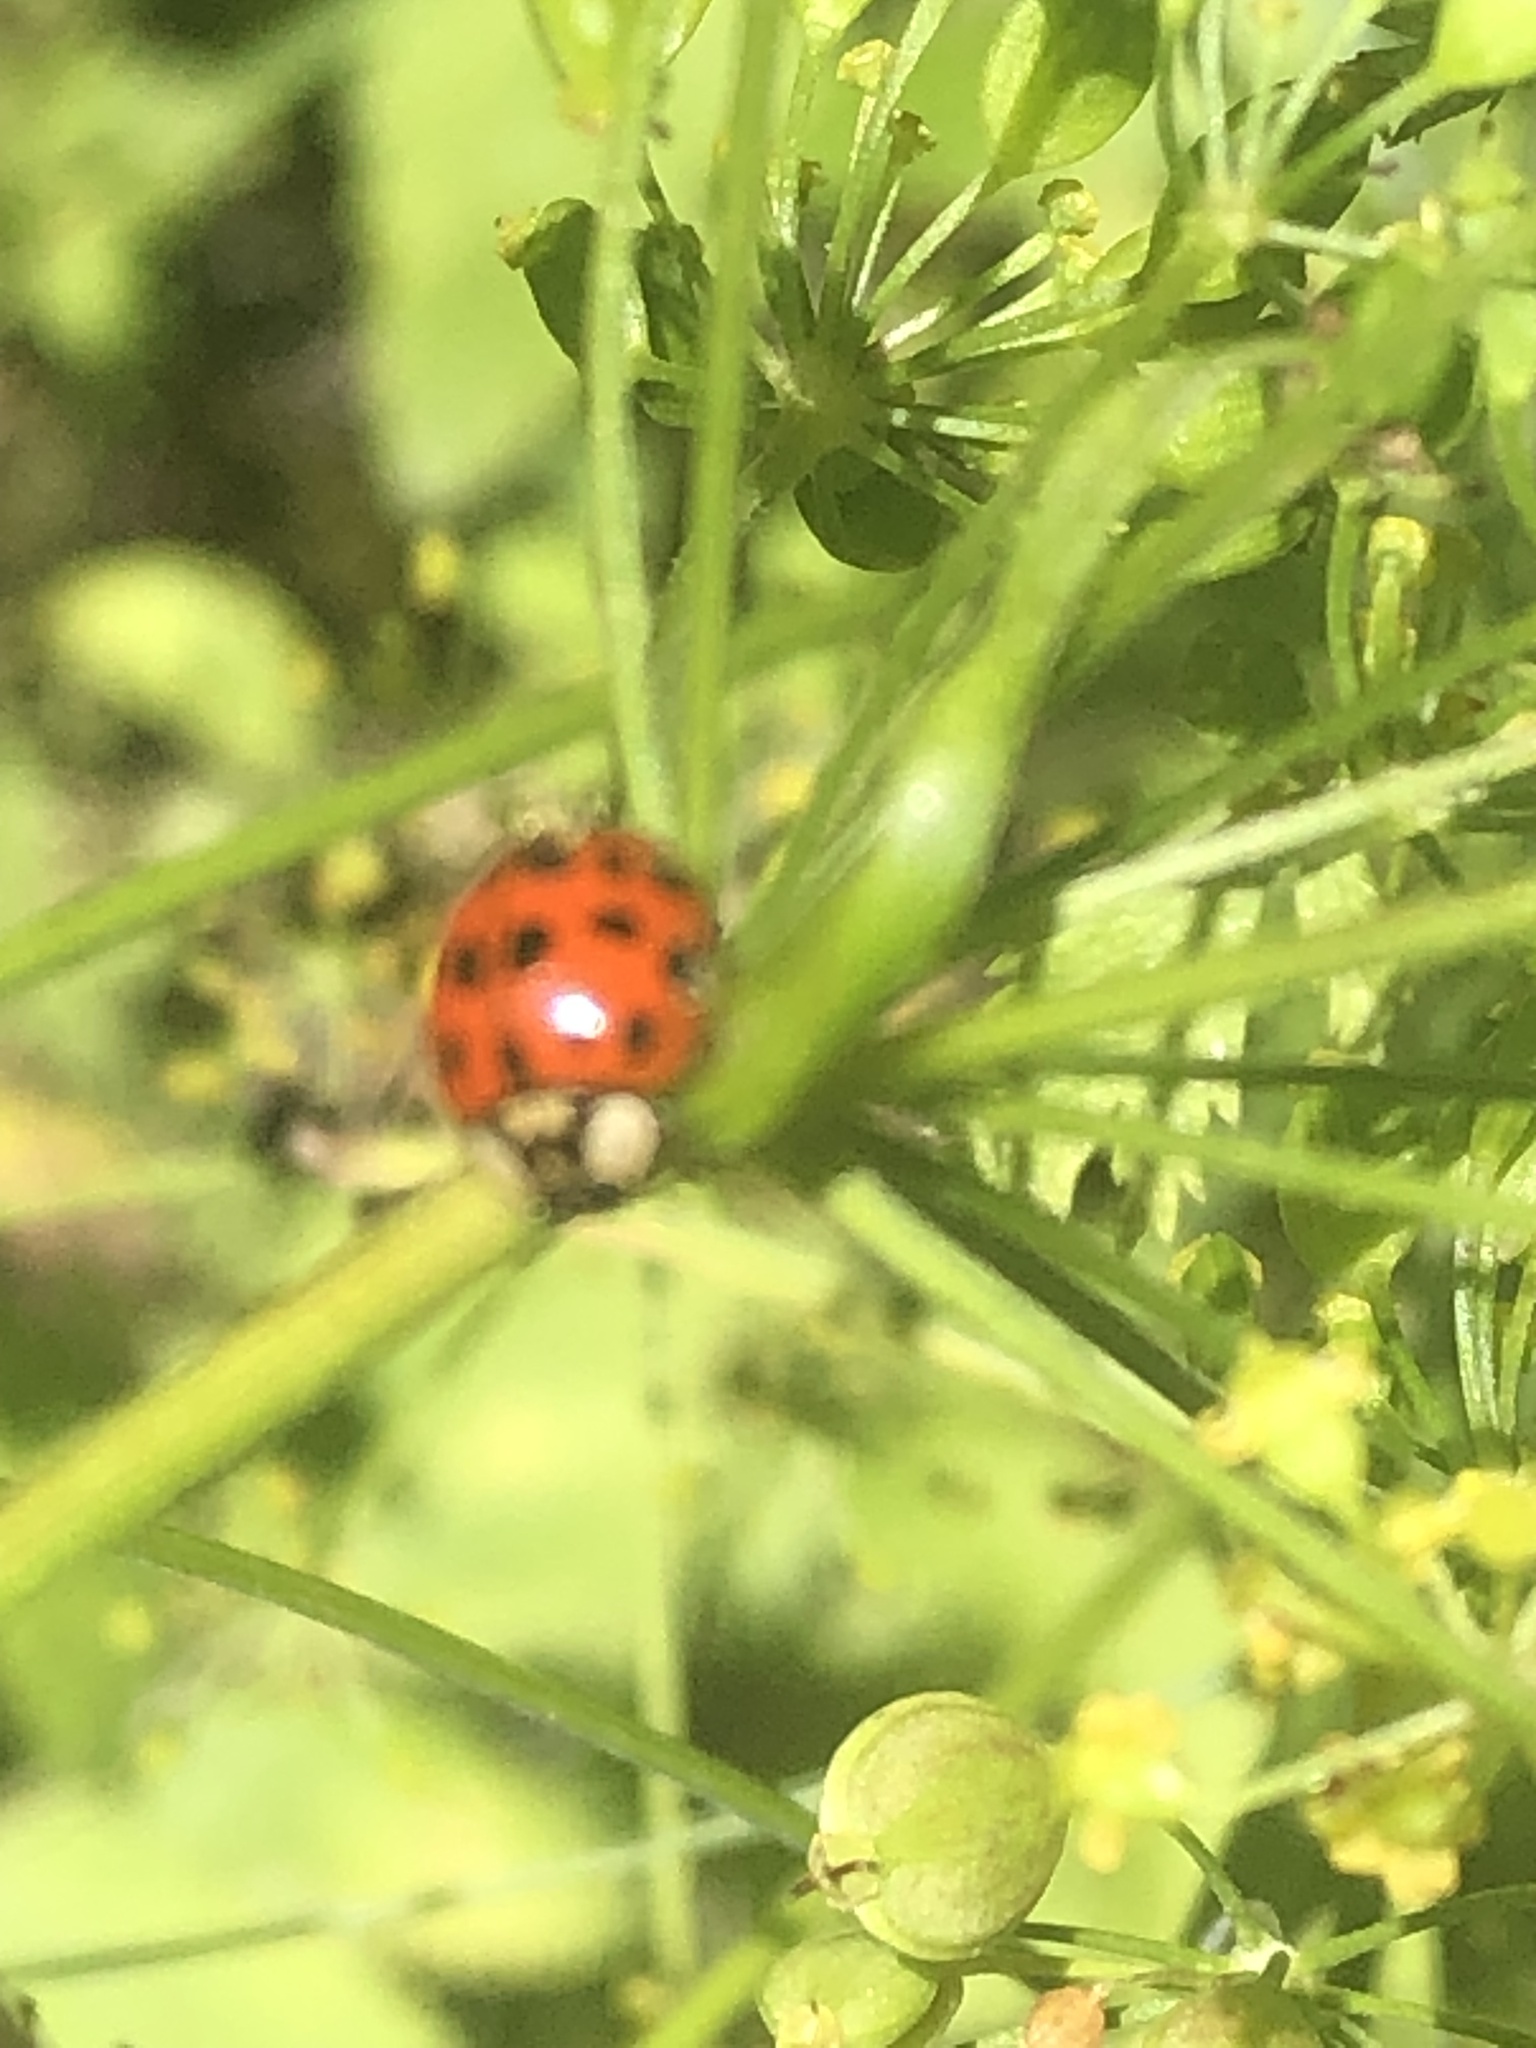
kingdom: Animalia
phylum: Arthropoda
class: Insecta
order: Coleoptera
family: Coccinellidae
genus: Harmonia
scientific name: Harmonia axyridis
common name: Harlequin ladybird
